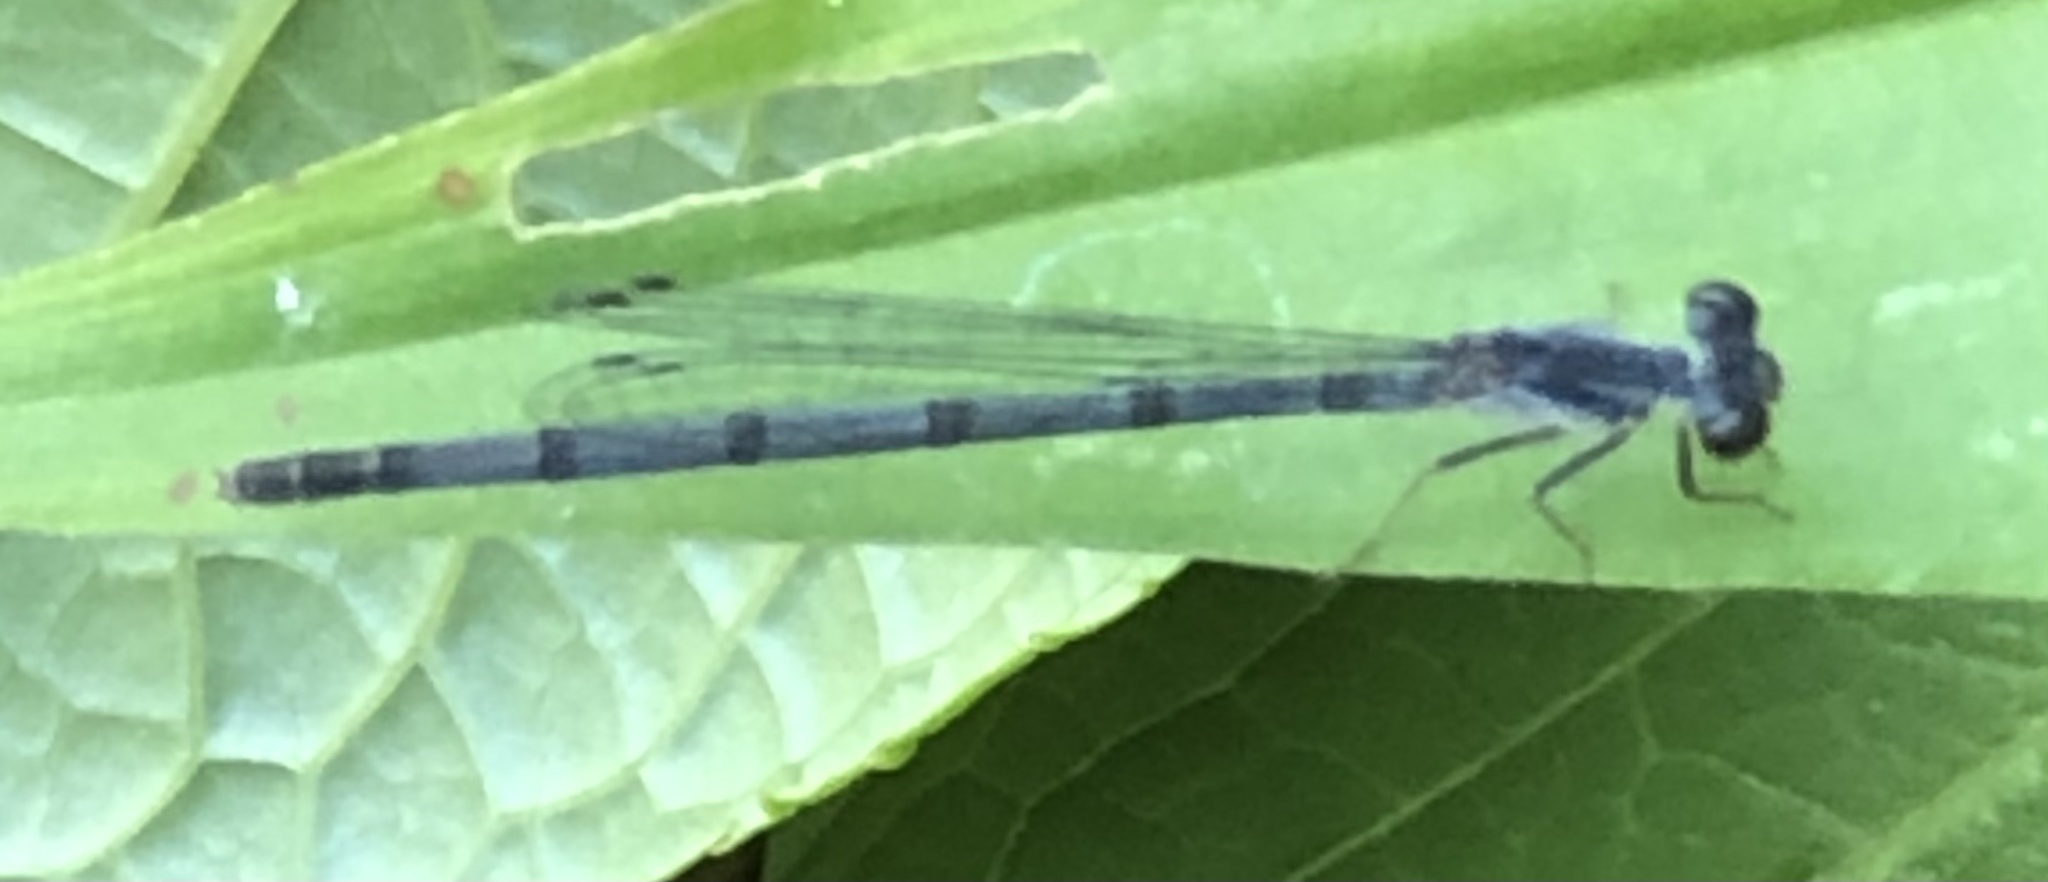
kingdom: Animalia
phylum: Arthropoda
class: Insecta
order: Odonata
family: Coenagrionidae
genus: Ischnura
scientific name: Ischnura posita
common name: Fragile forktail
